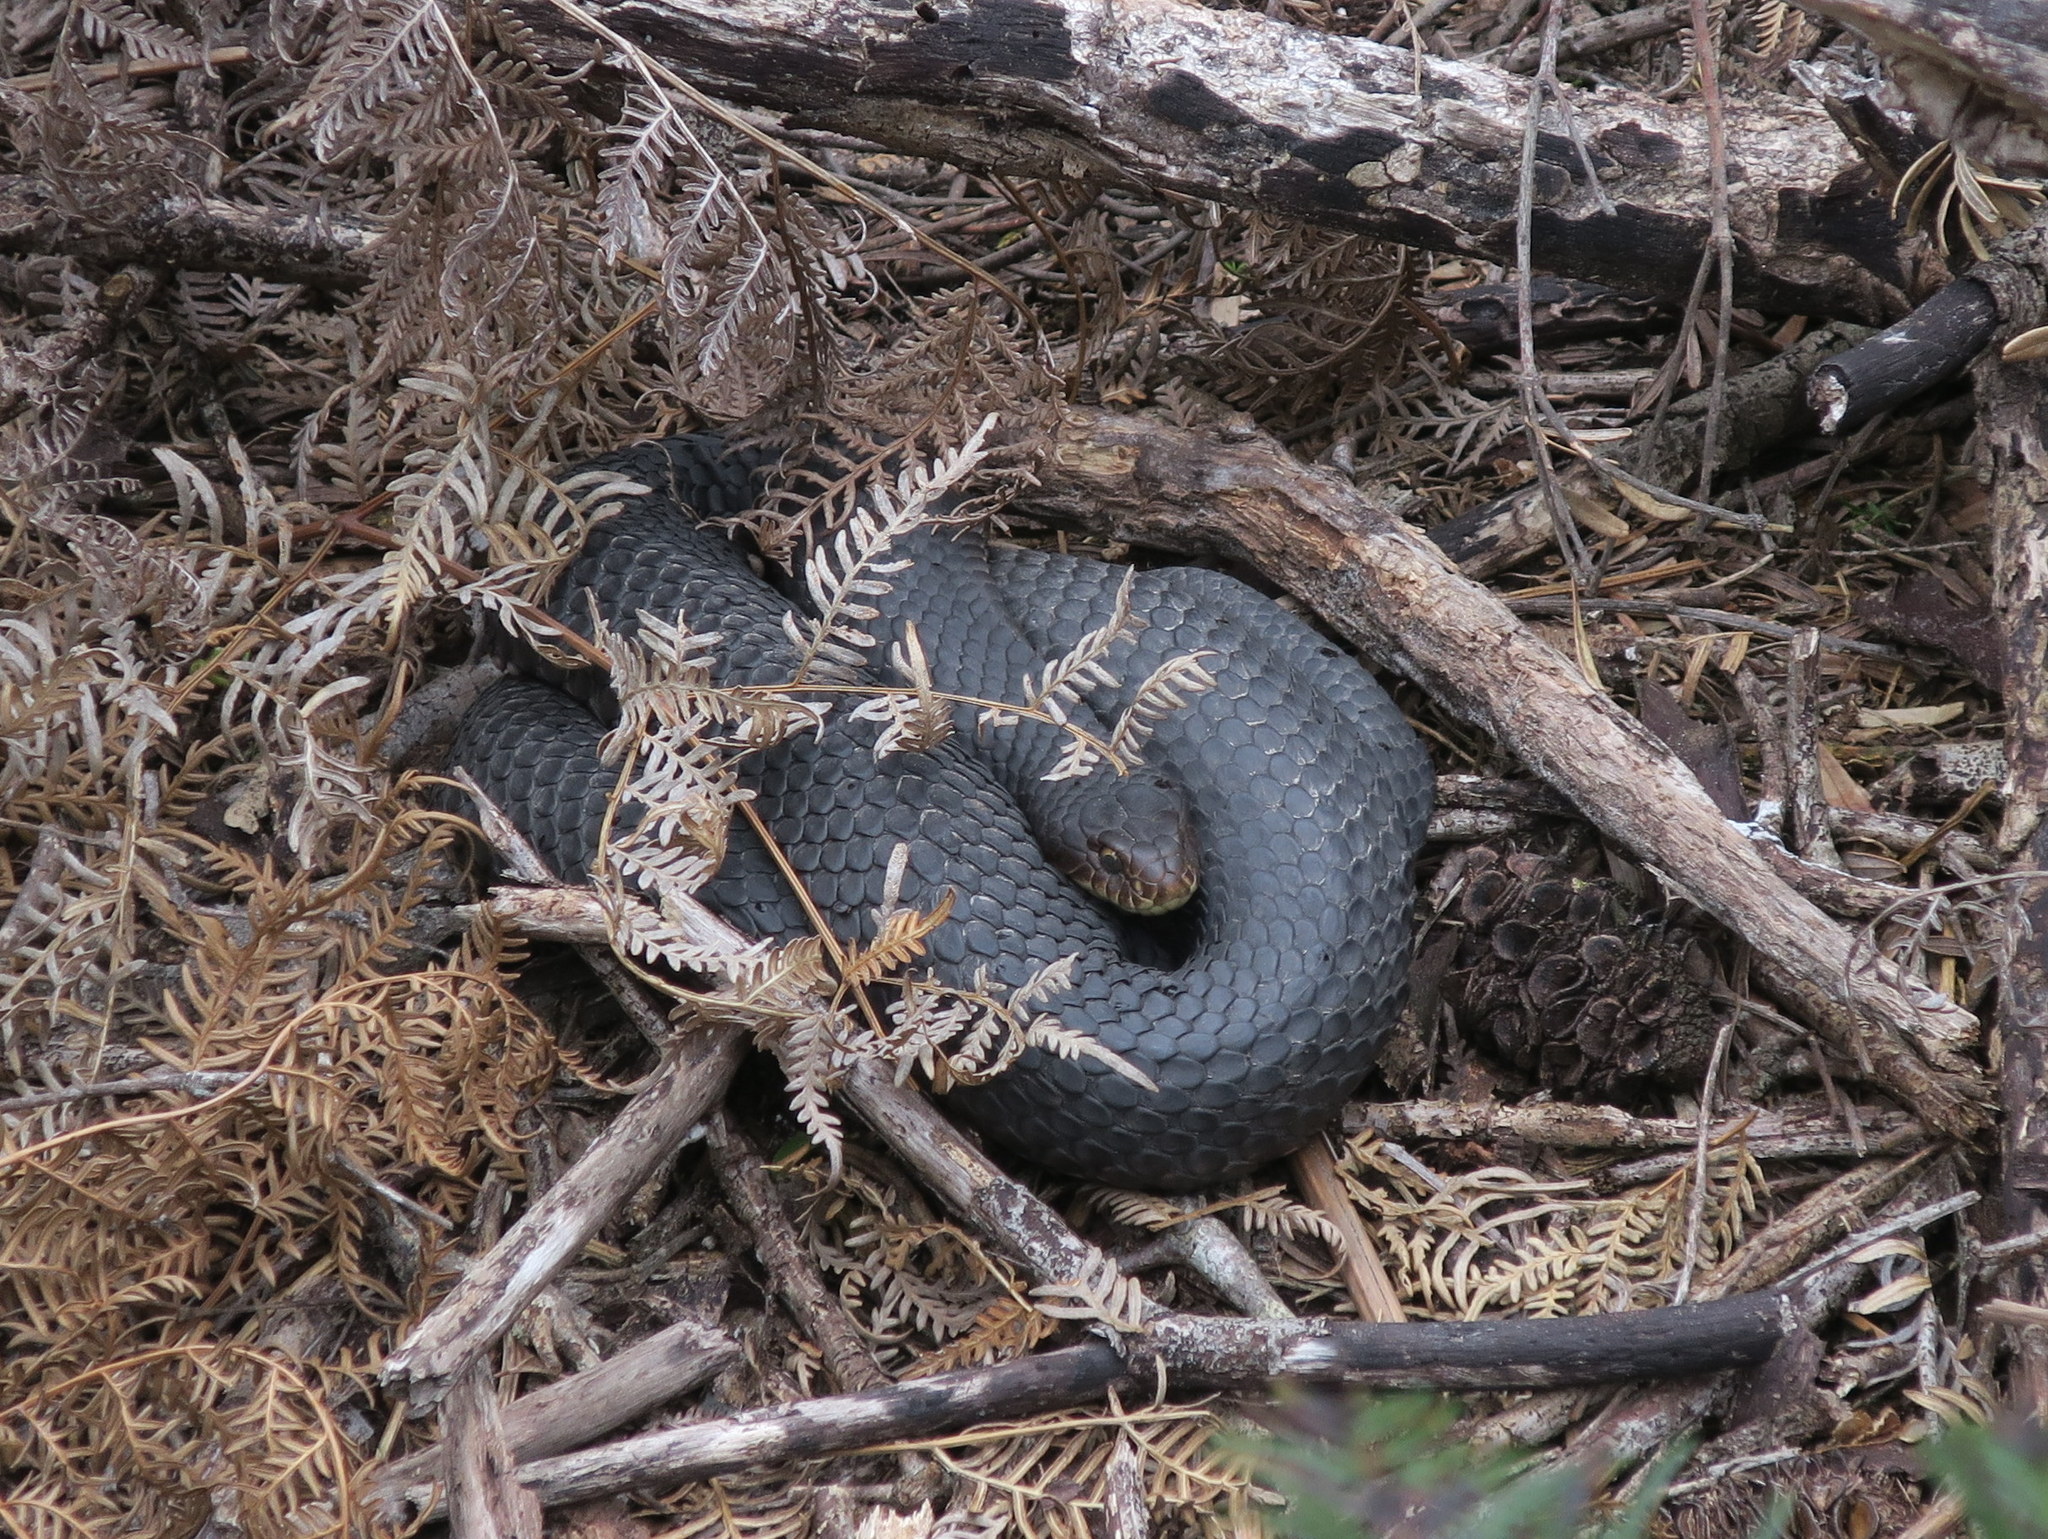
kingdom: Animalia
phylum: Chordata
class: Squamata
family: Elapidae
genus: Austrelaps
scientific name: Austrelaps superbus
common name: Copperhead snake
